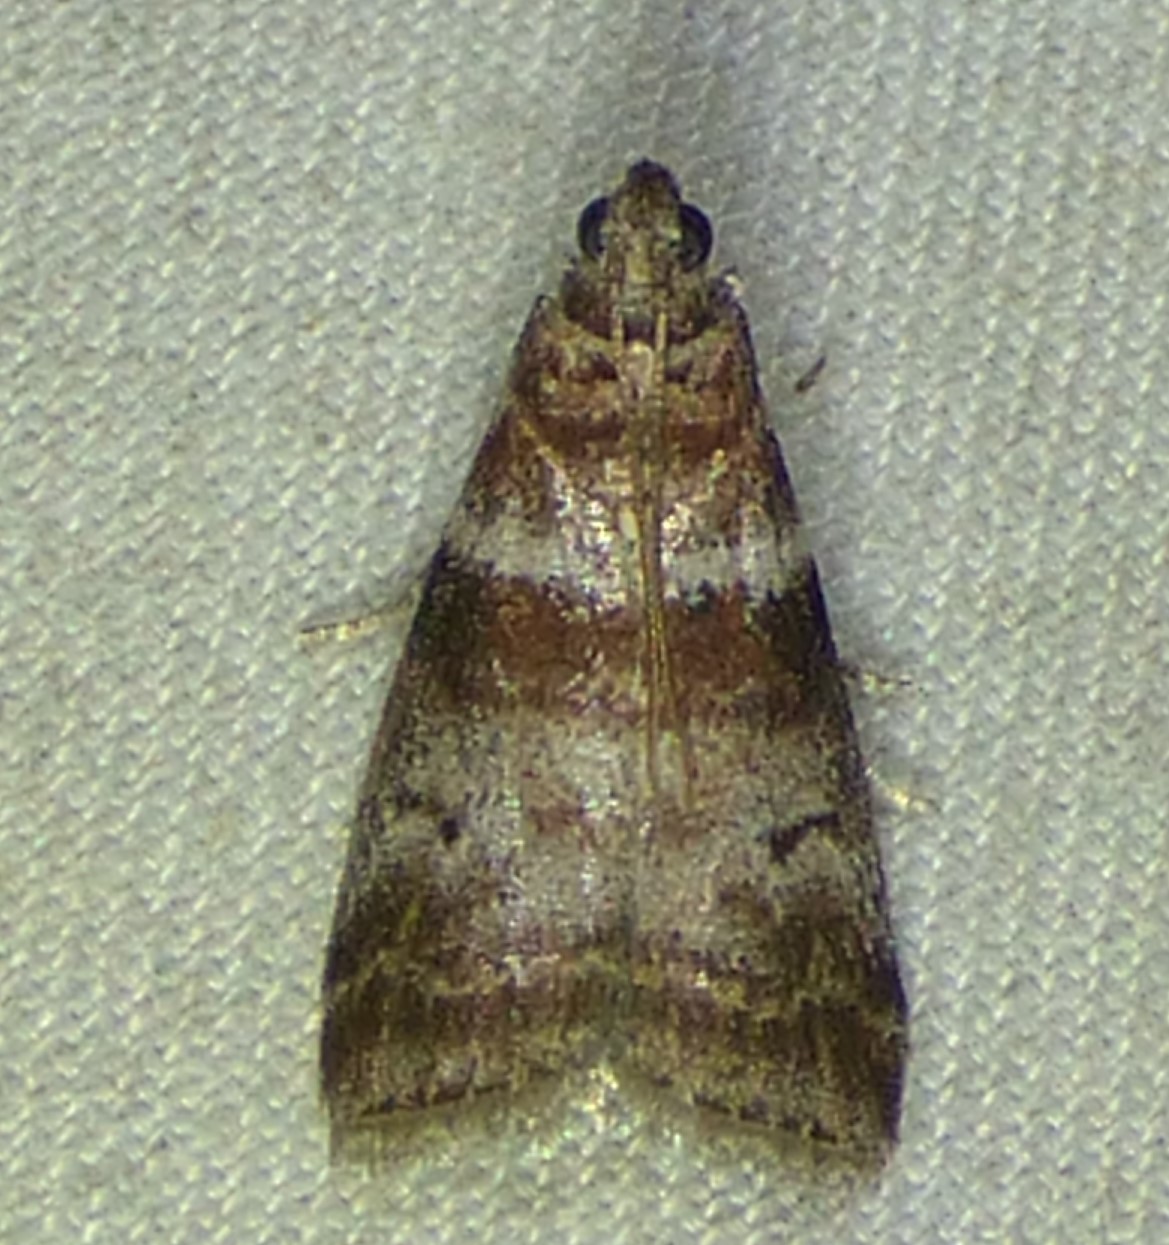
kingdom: Animalia
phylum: Arthropoda
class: Insecta
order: Lepidoptera
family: Pyralidae
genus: Sciota
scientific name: Sciota uvinella
